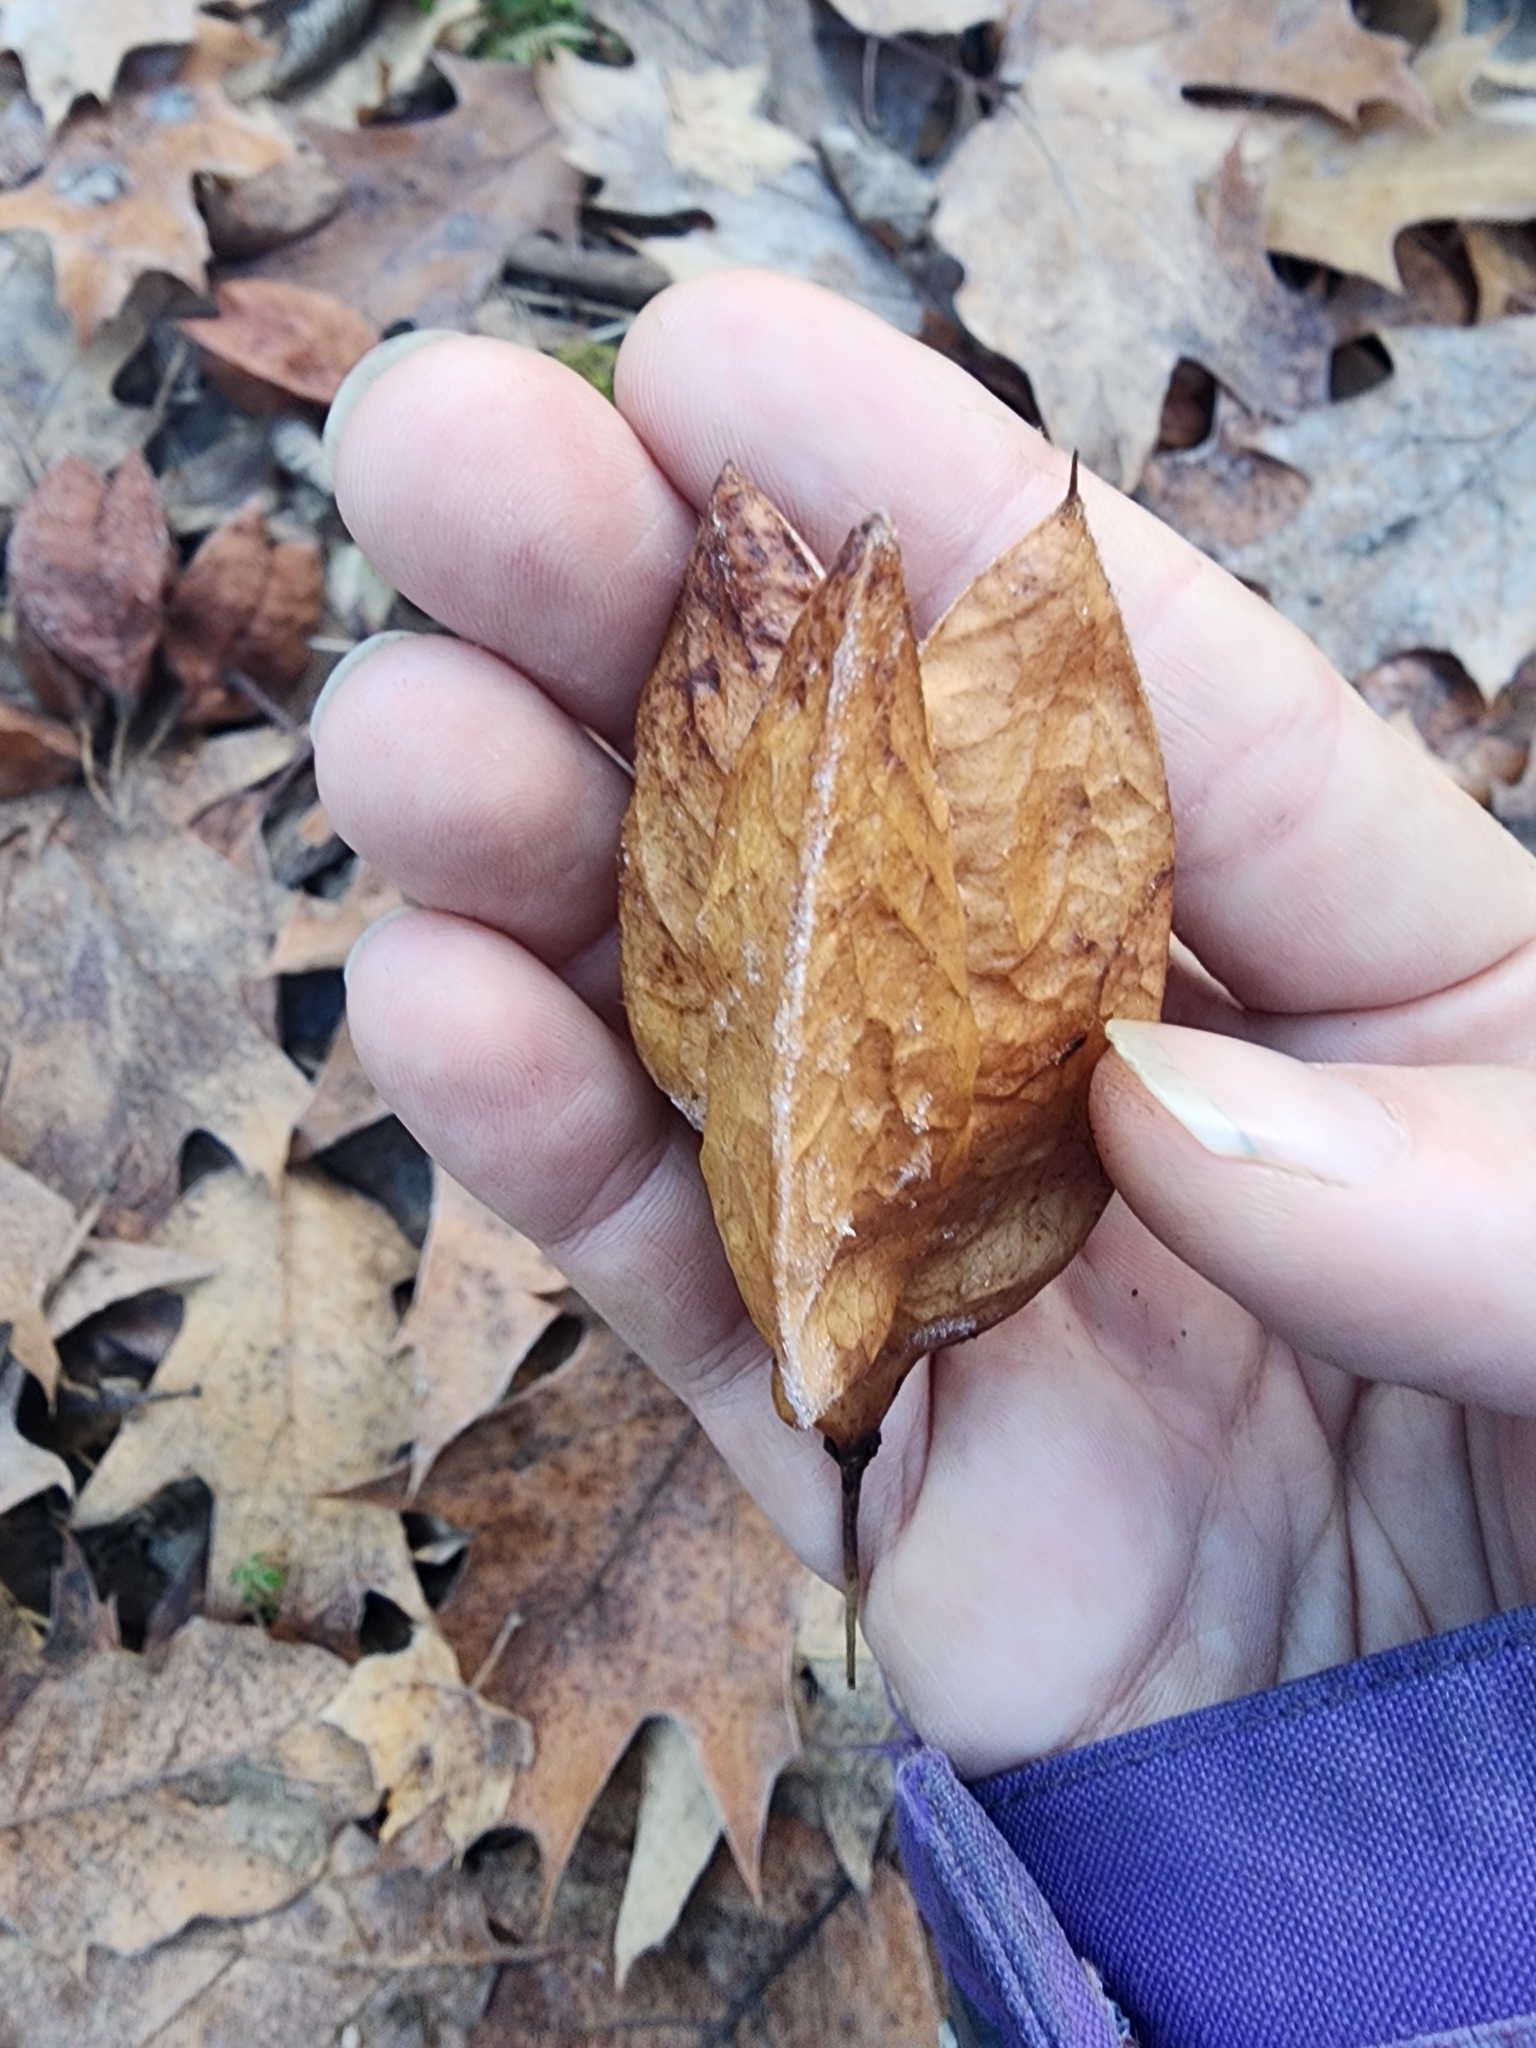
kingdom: Plantae
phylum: Tracheophyta
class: Magnoliopsida
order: Crossosomatales
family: Staphyleaceae
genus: Staphylea
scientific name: Staphylea trifolia
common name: American bladdernut
